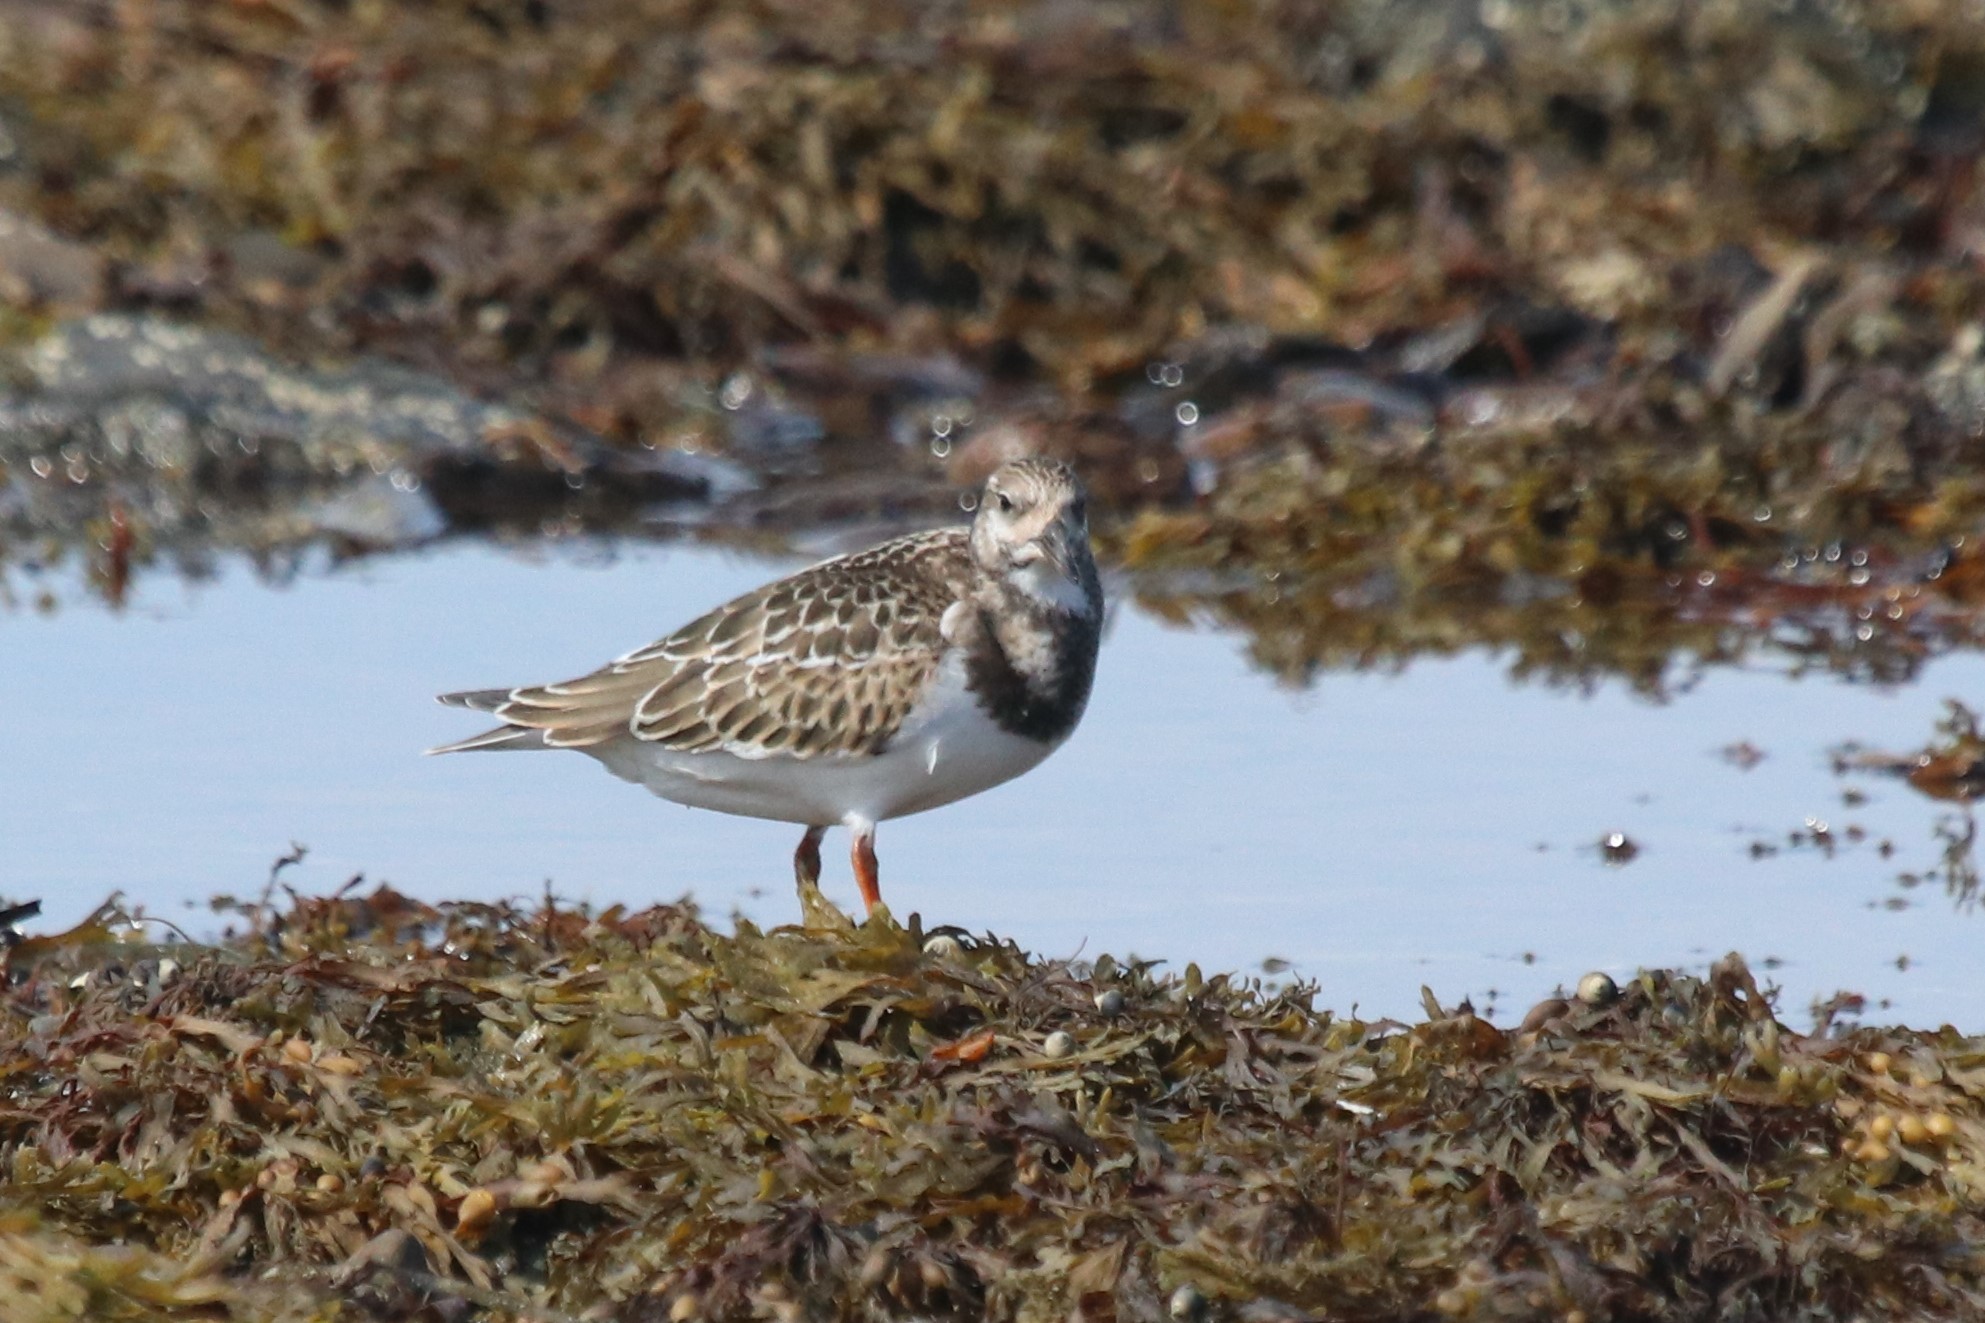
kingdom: Animalia
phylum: Chordata
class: Aves
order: Charadriiformes
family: Scolopacidae
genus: Arenaria
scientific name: Arenaria interpres
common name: Ruddy turnstone
